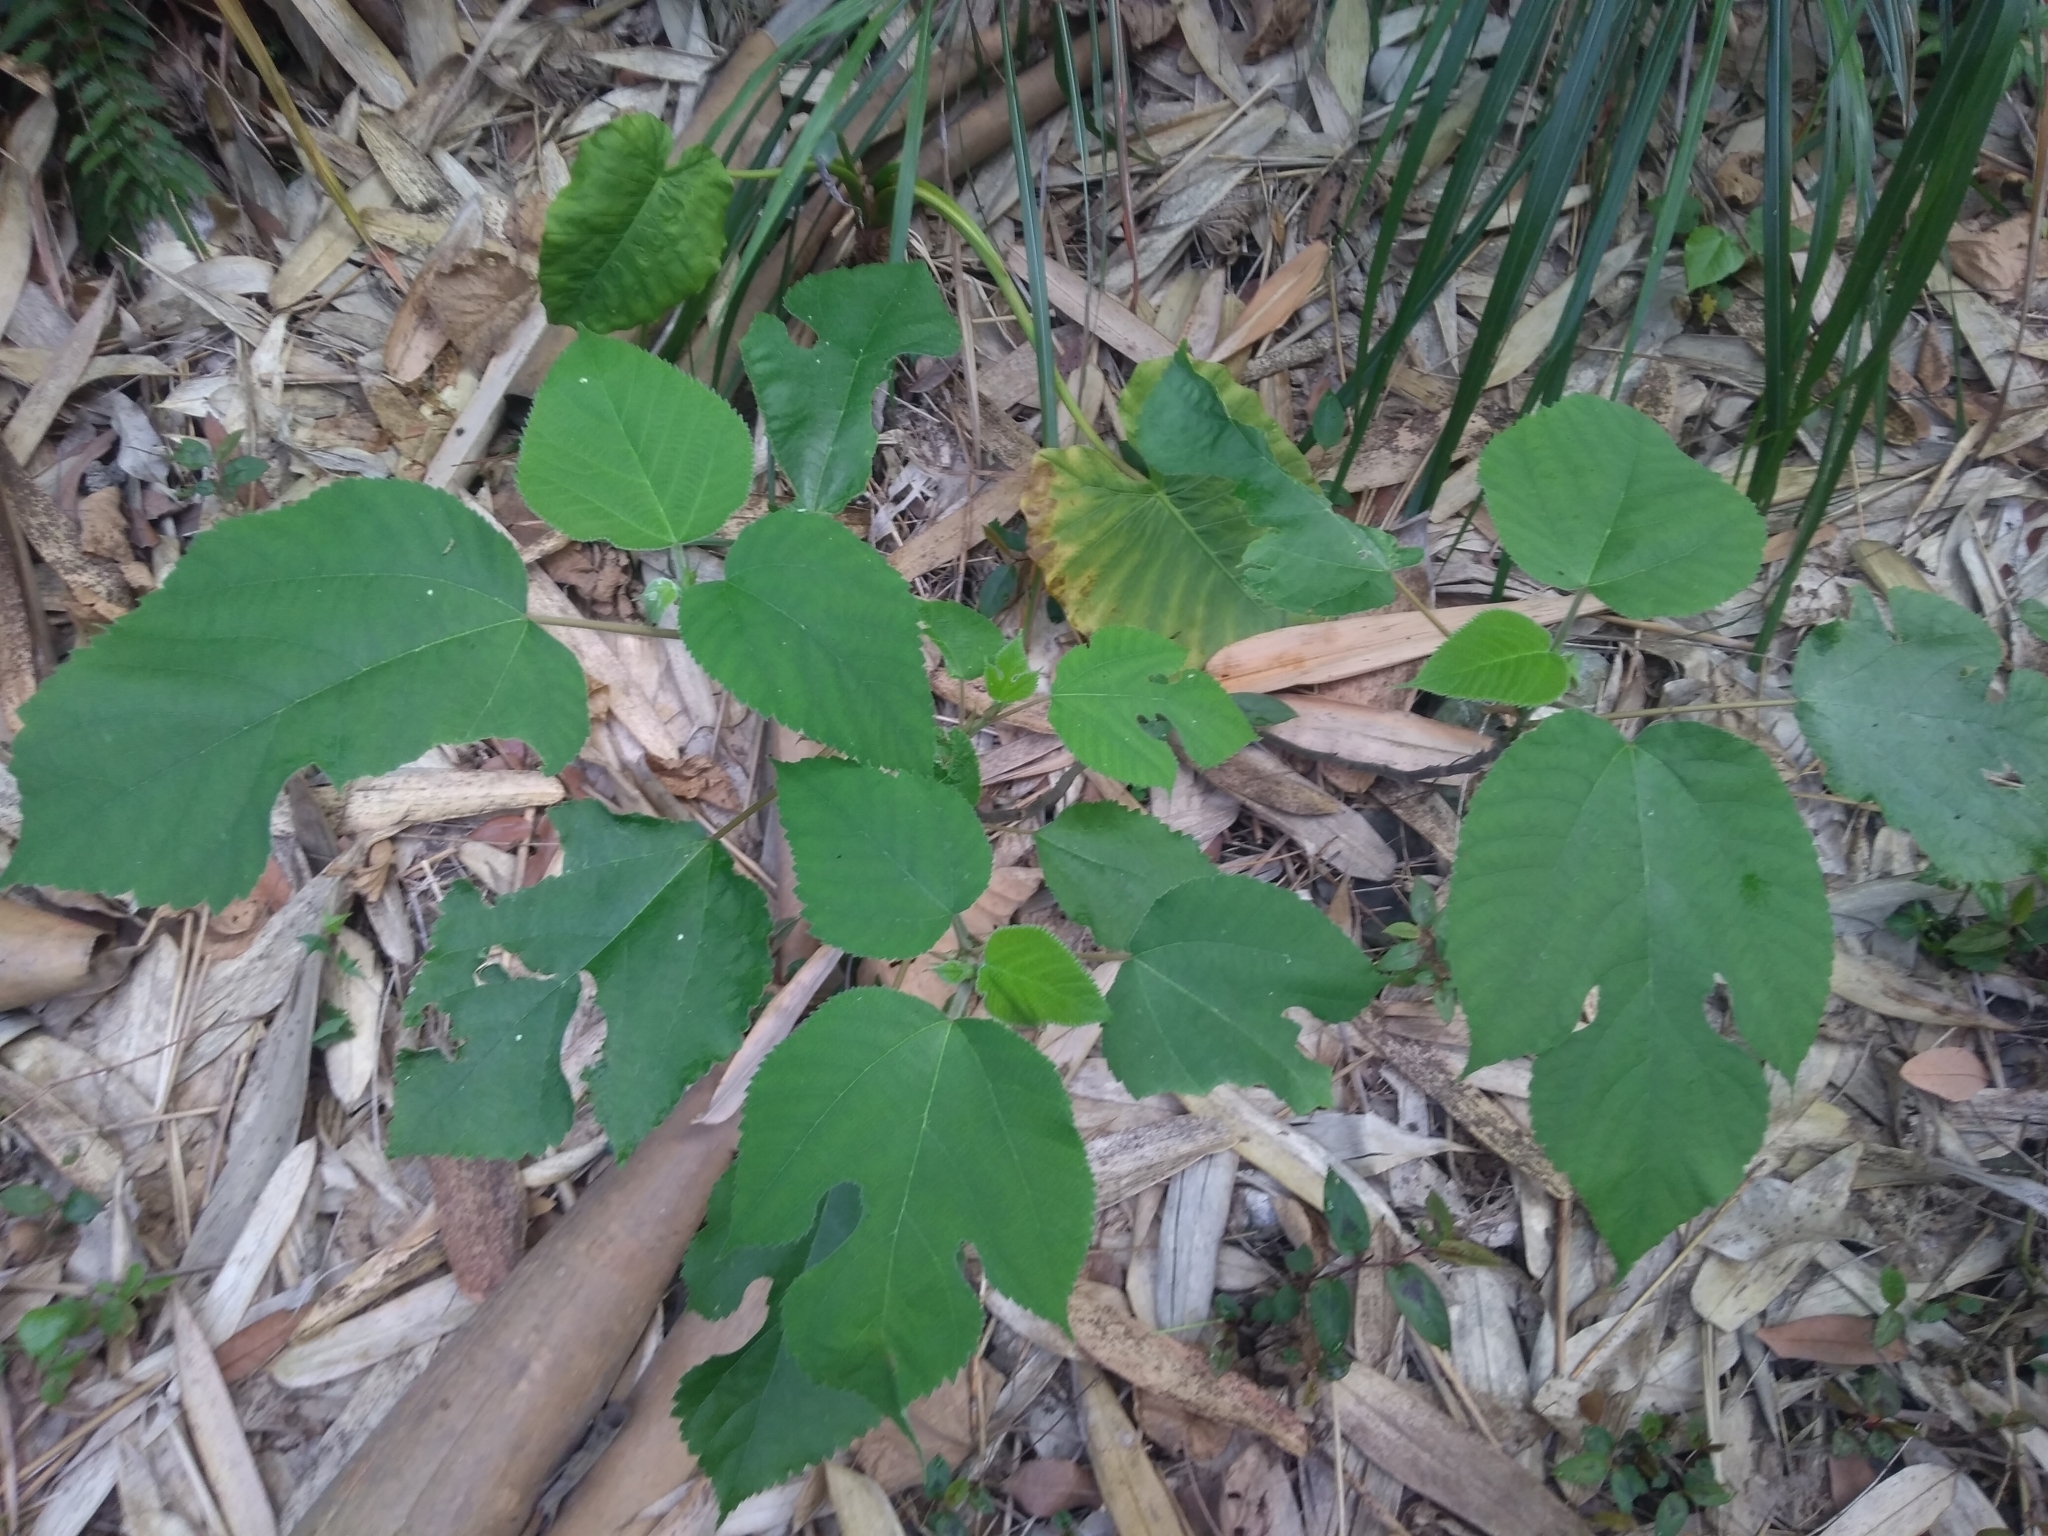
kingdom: Plantae
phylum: Tracheophyta
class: Magnoliopsida
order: Rosales
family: Moraceae
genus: Broussonetia
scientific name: Broussonetia papyrifera
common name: Paper mulberry
